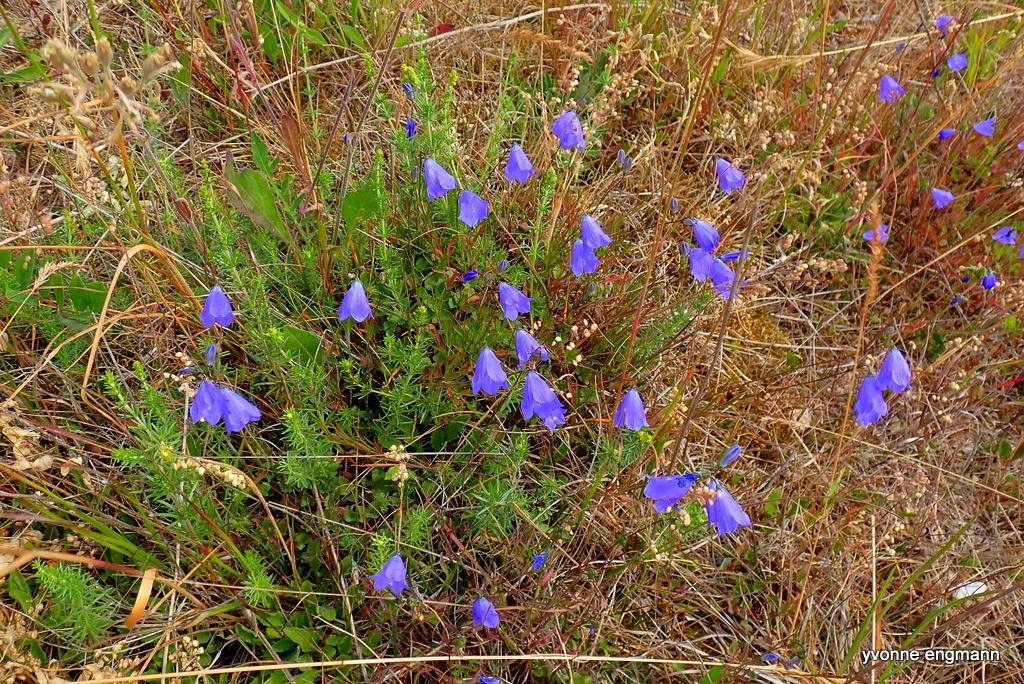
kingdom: Plantae
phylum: Tracheophyta
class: Magnoliopsida
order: Asterales
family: Campanulaceae
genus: Campanula
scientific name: Campanula rotundifolia
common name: Harebell
